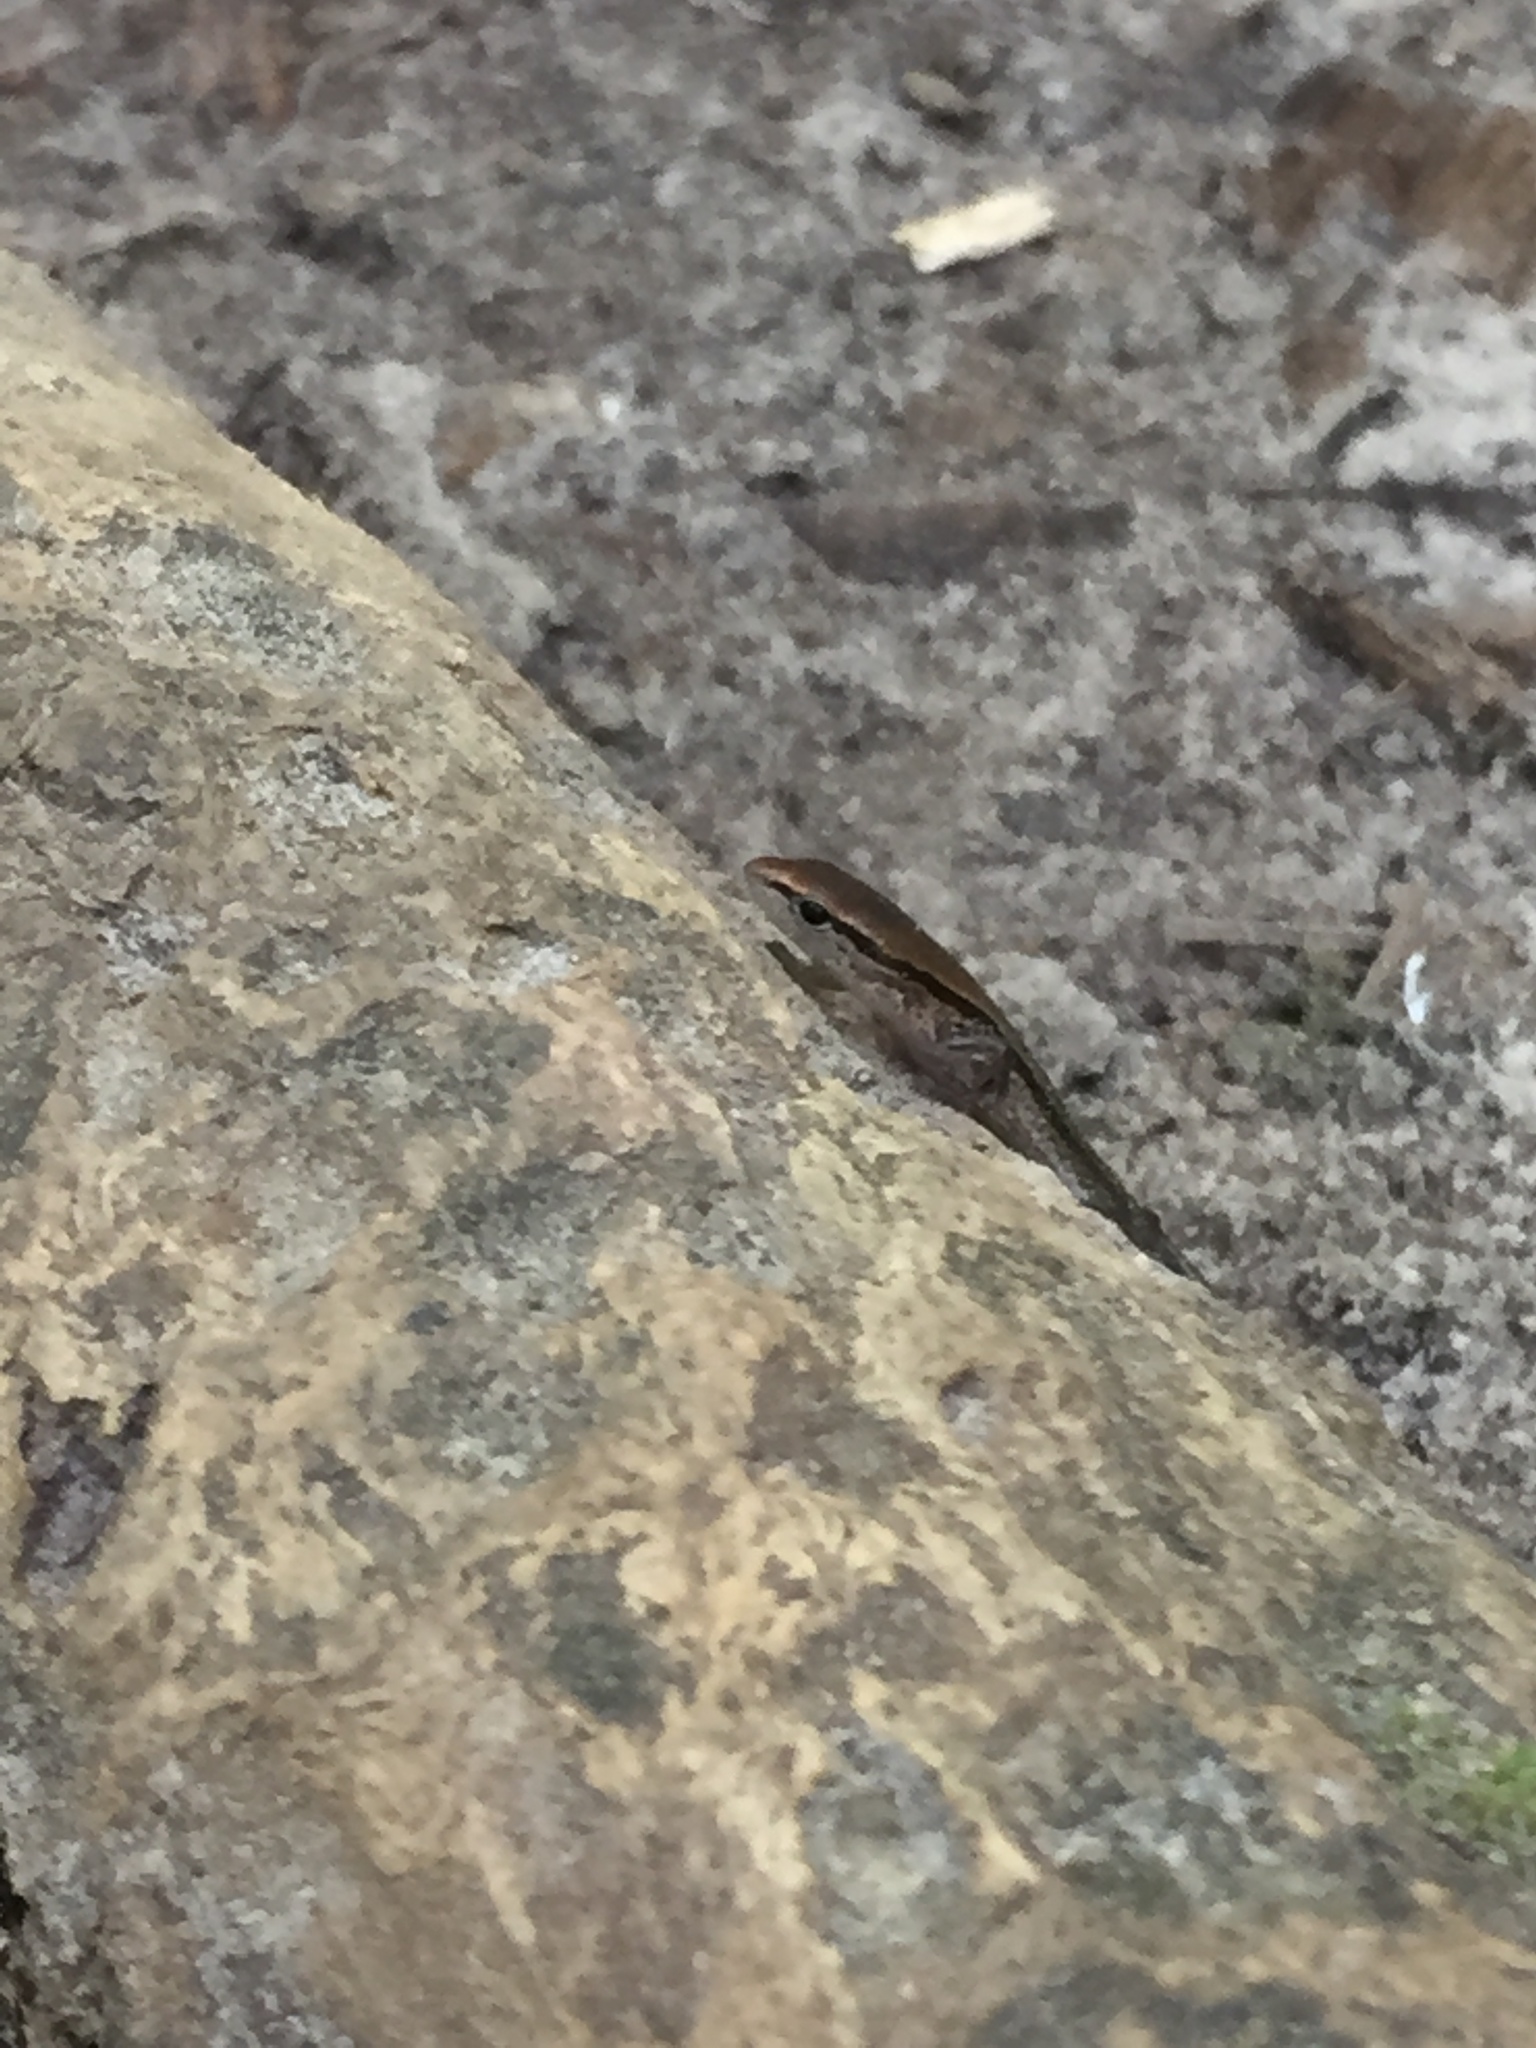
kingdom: Animalia
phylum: Chordata
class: Squamata
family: Scincidae
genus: Scincella
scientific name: Scincella lateralis
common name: Ground skink
